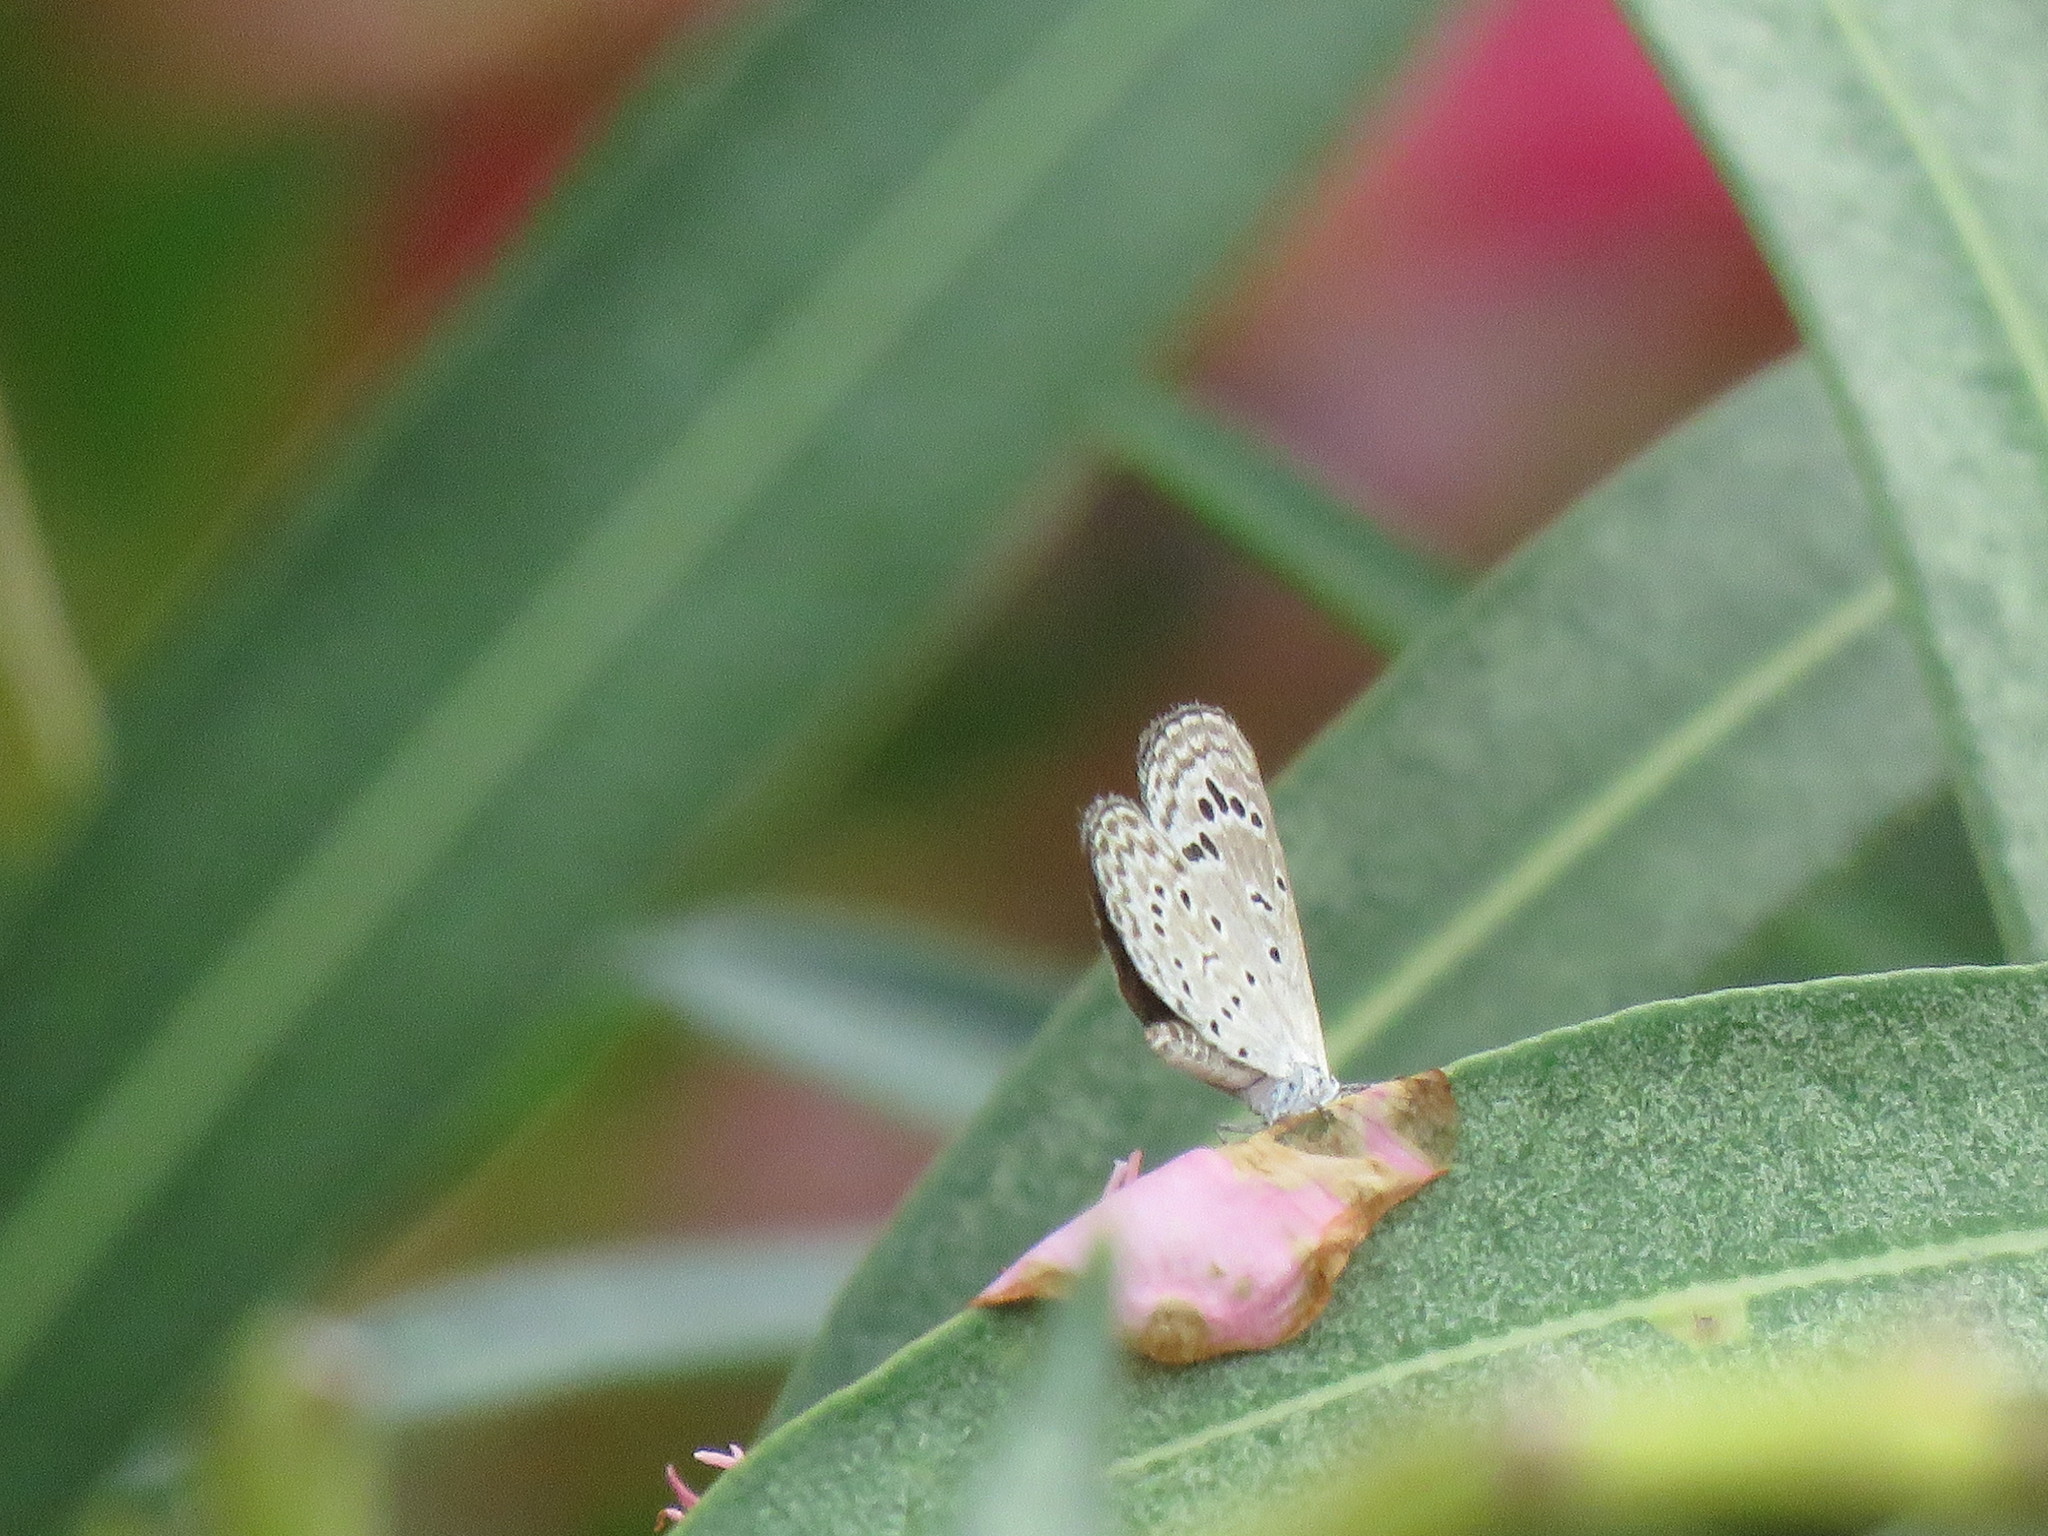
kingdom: Animalia
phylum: Arthropoda
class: Insecta
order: Lepidoptera
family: Lycaenidae
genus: Zizeeria
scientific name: Zizeeria karsandra
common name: Dark grass blue
